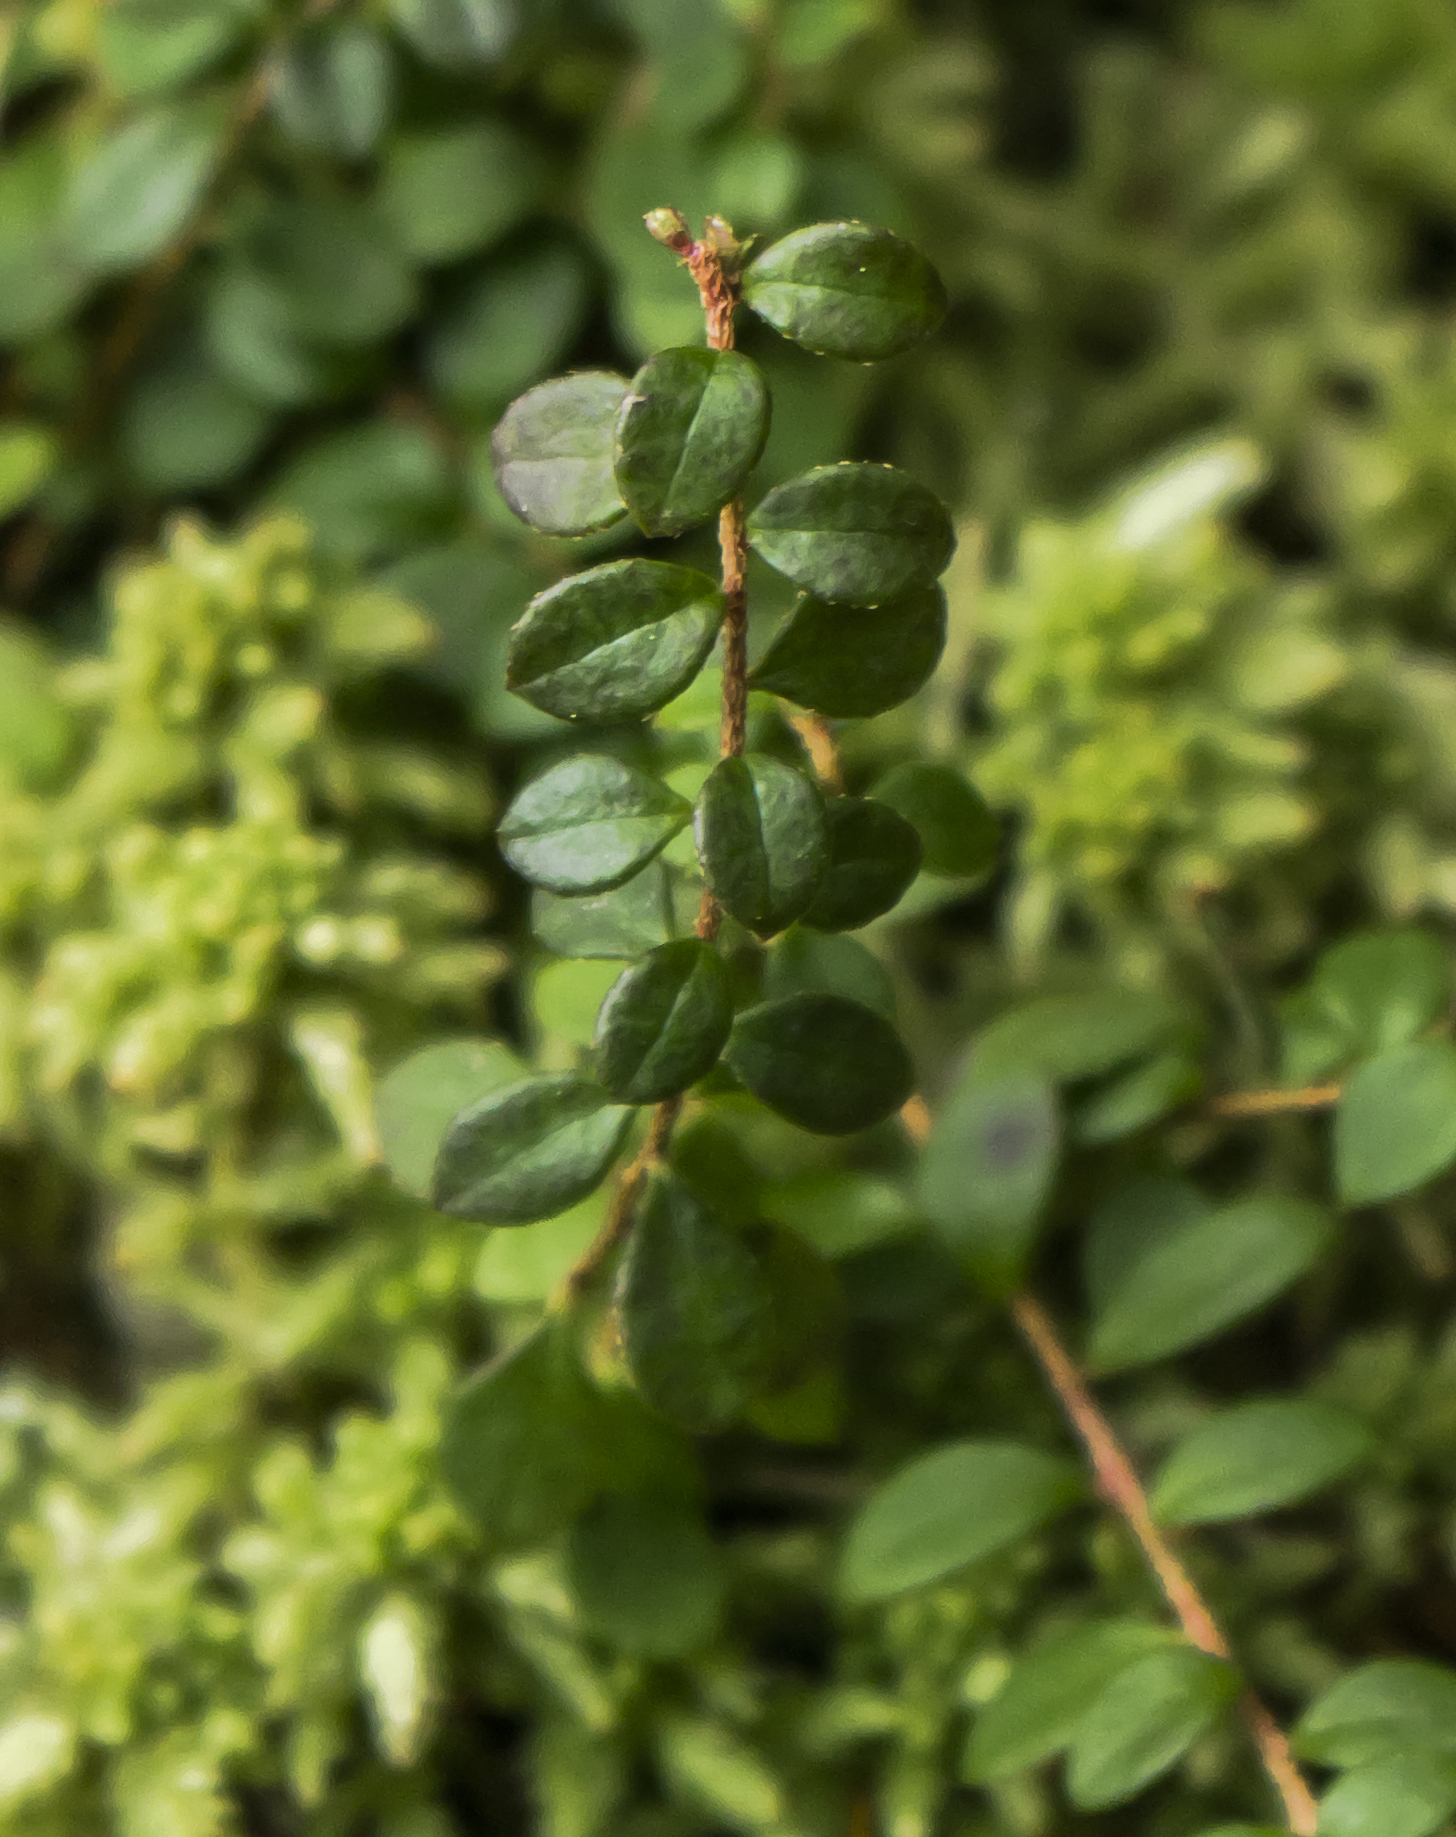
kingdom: Plantae
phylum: Tracheophyta
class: Magnoliopsida
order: Ericales
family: Ericaceae
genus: Gaultheria
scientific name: Gaultheria hispidula
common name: Cancer wintergreen
